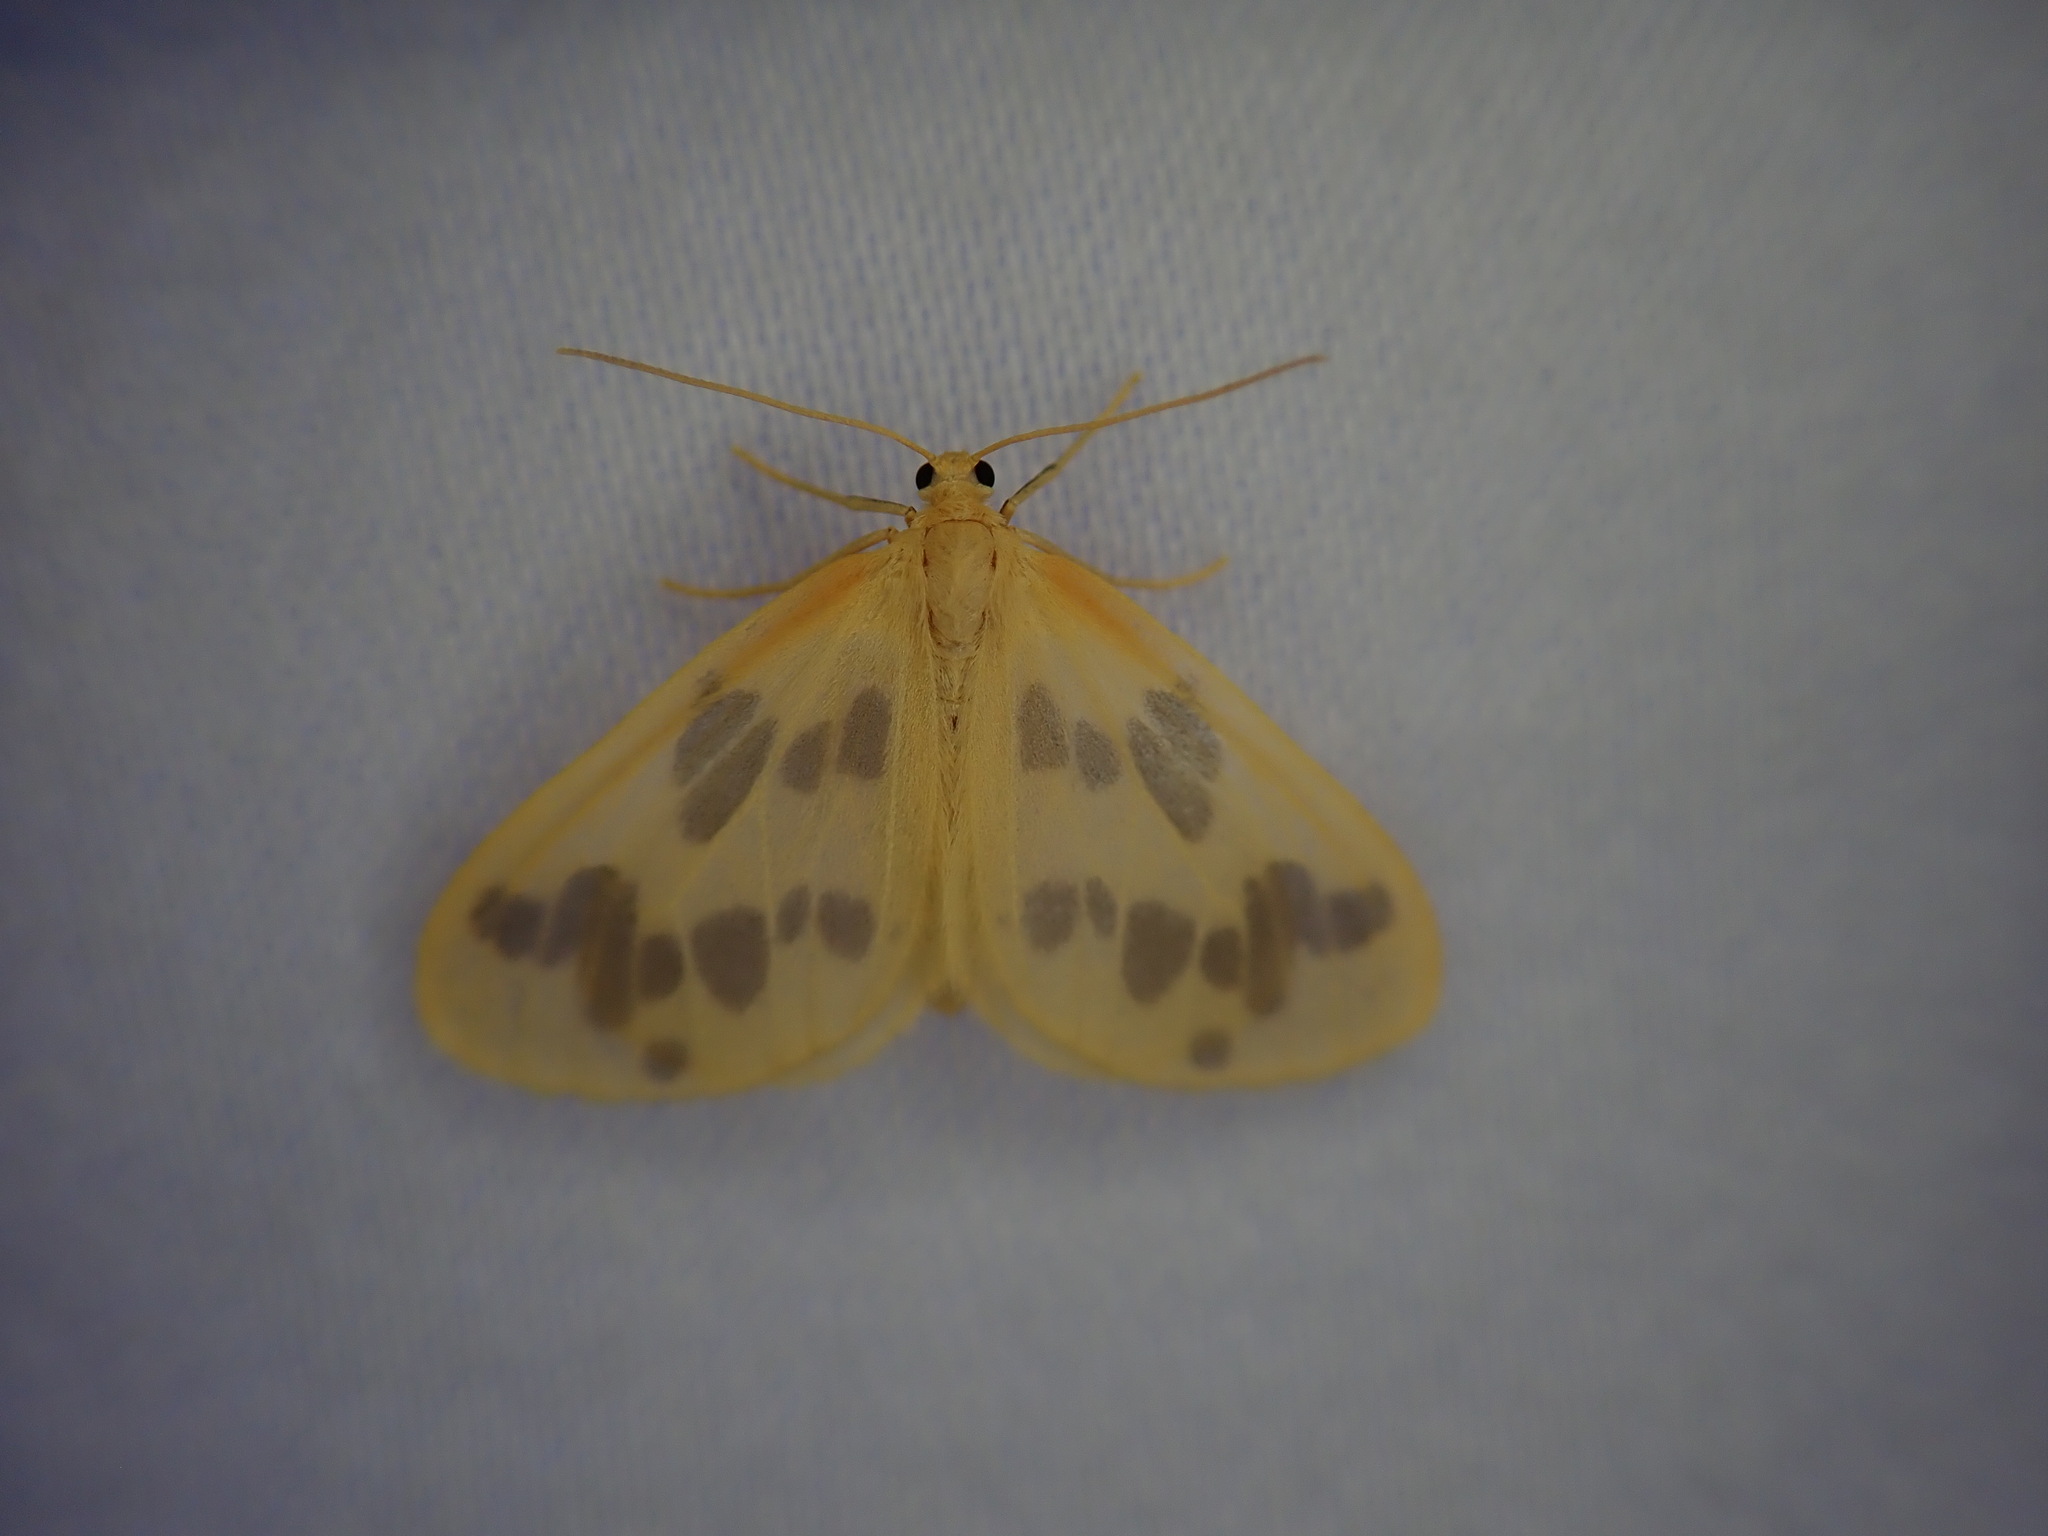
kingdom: Animalia
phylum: Arthropoda
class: Insecta
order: Lepidoptera
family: Geometridae
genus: Eubaphe
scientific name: Eubaphe mendica
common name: Beggar
